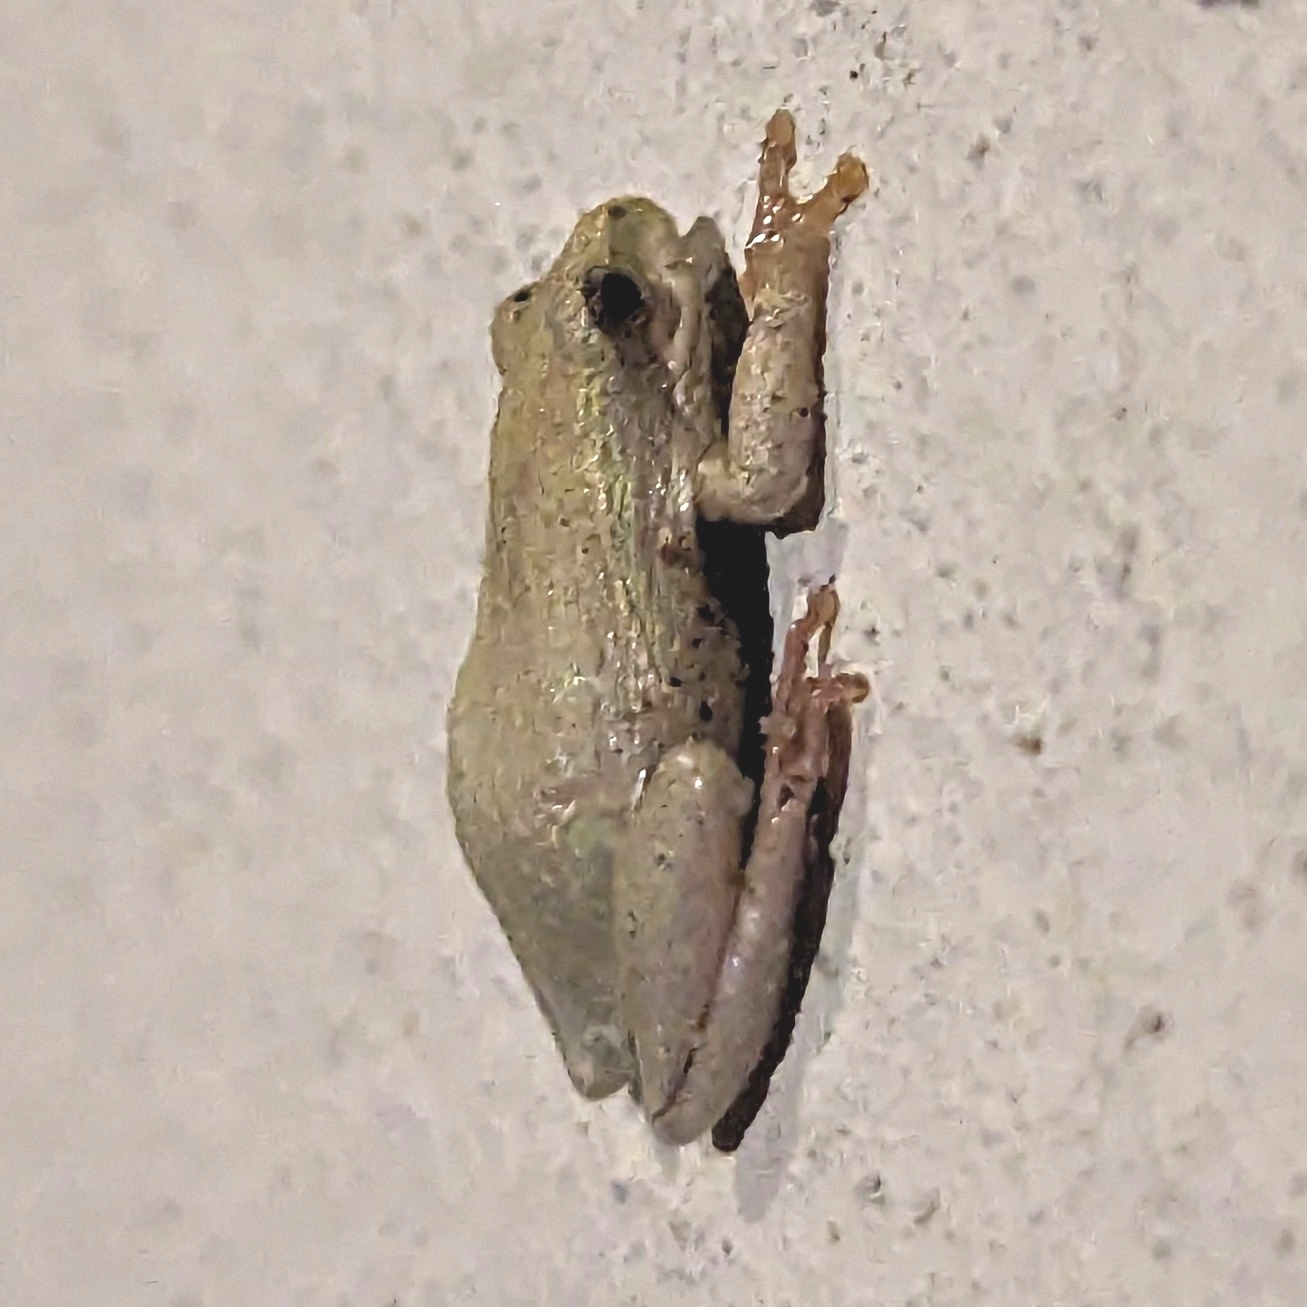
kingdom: Animalia
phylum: Chordata
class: Amphibia
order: Anura
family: Hyperoliidae
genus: Hyperolius
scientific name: Hyperolius marmoratus
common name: Painted reed frog
